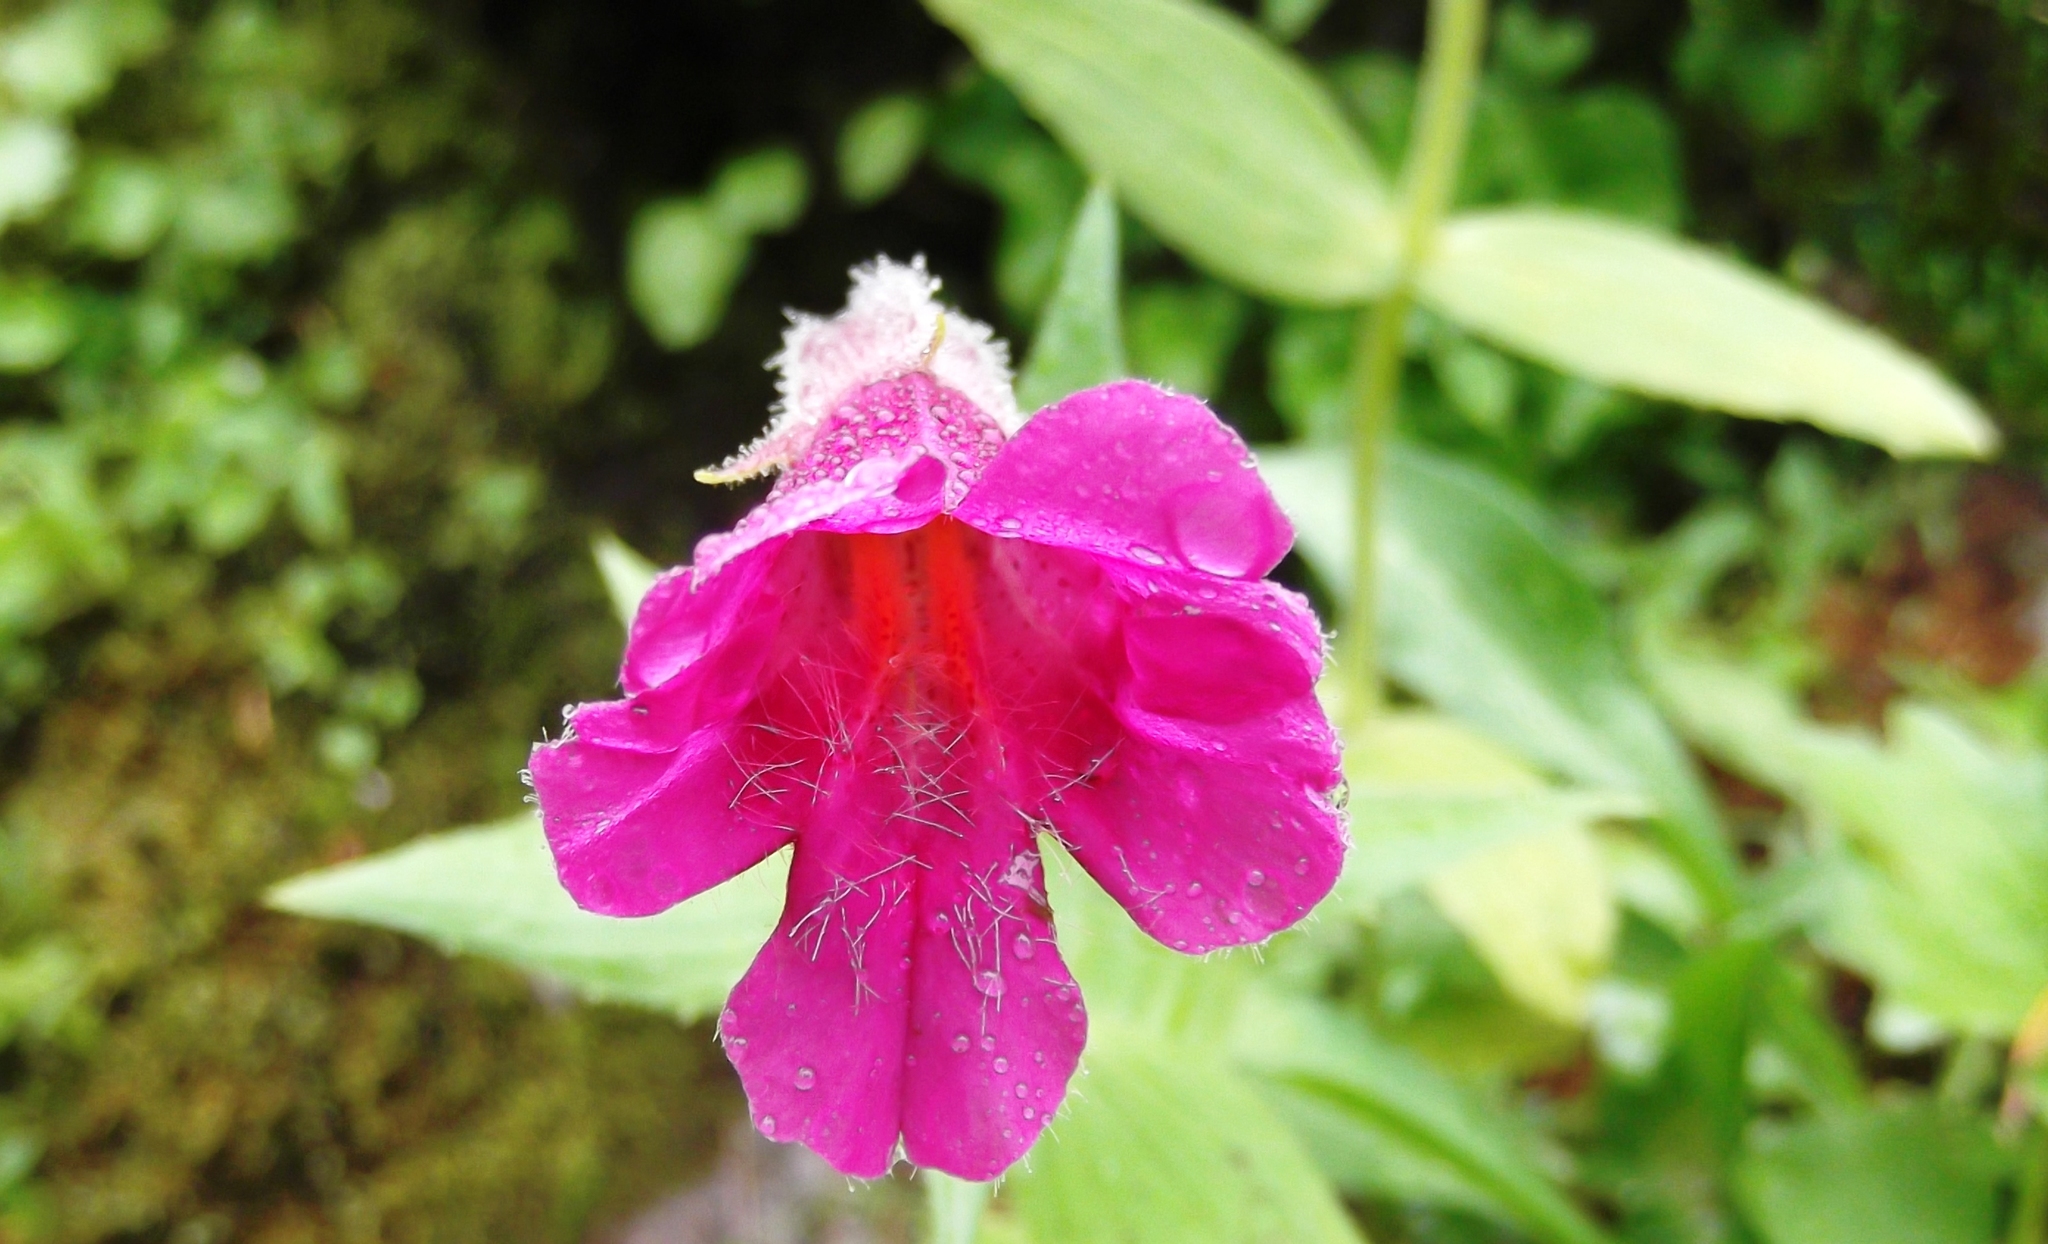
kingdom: Plantae
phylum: Tracheophyta
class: Magnoliopsida
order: Lamiales
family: Phrymaceae
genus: Erythranthe
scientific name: Erythranthe lewisii
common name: Lewis's monkey-flower
